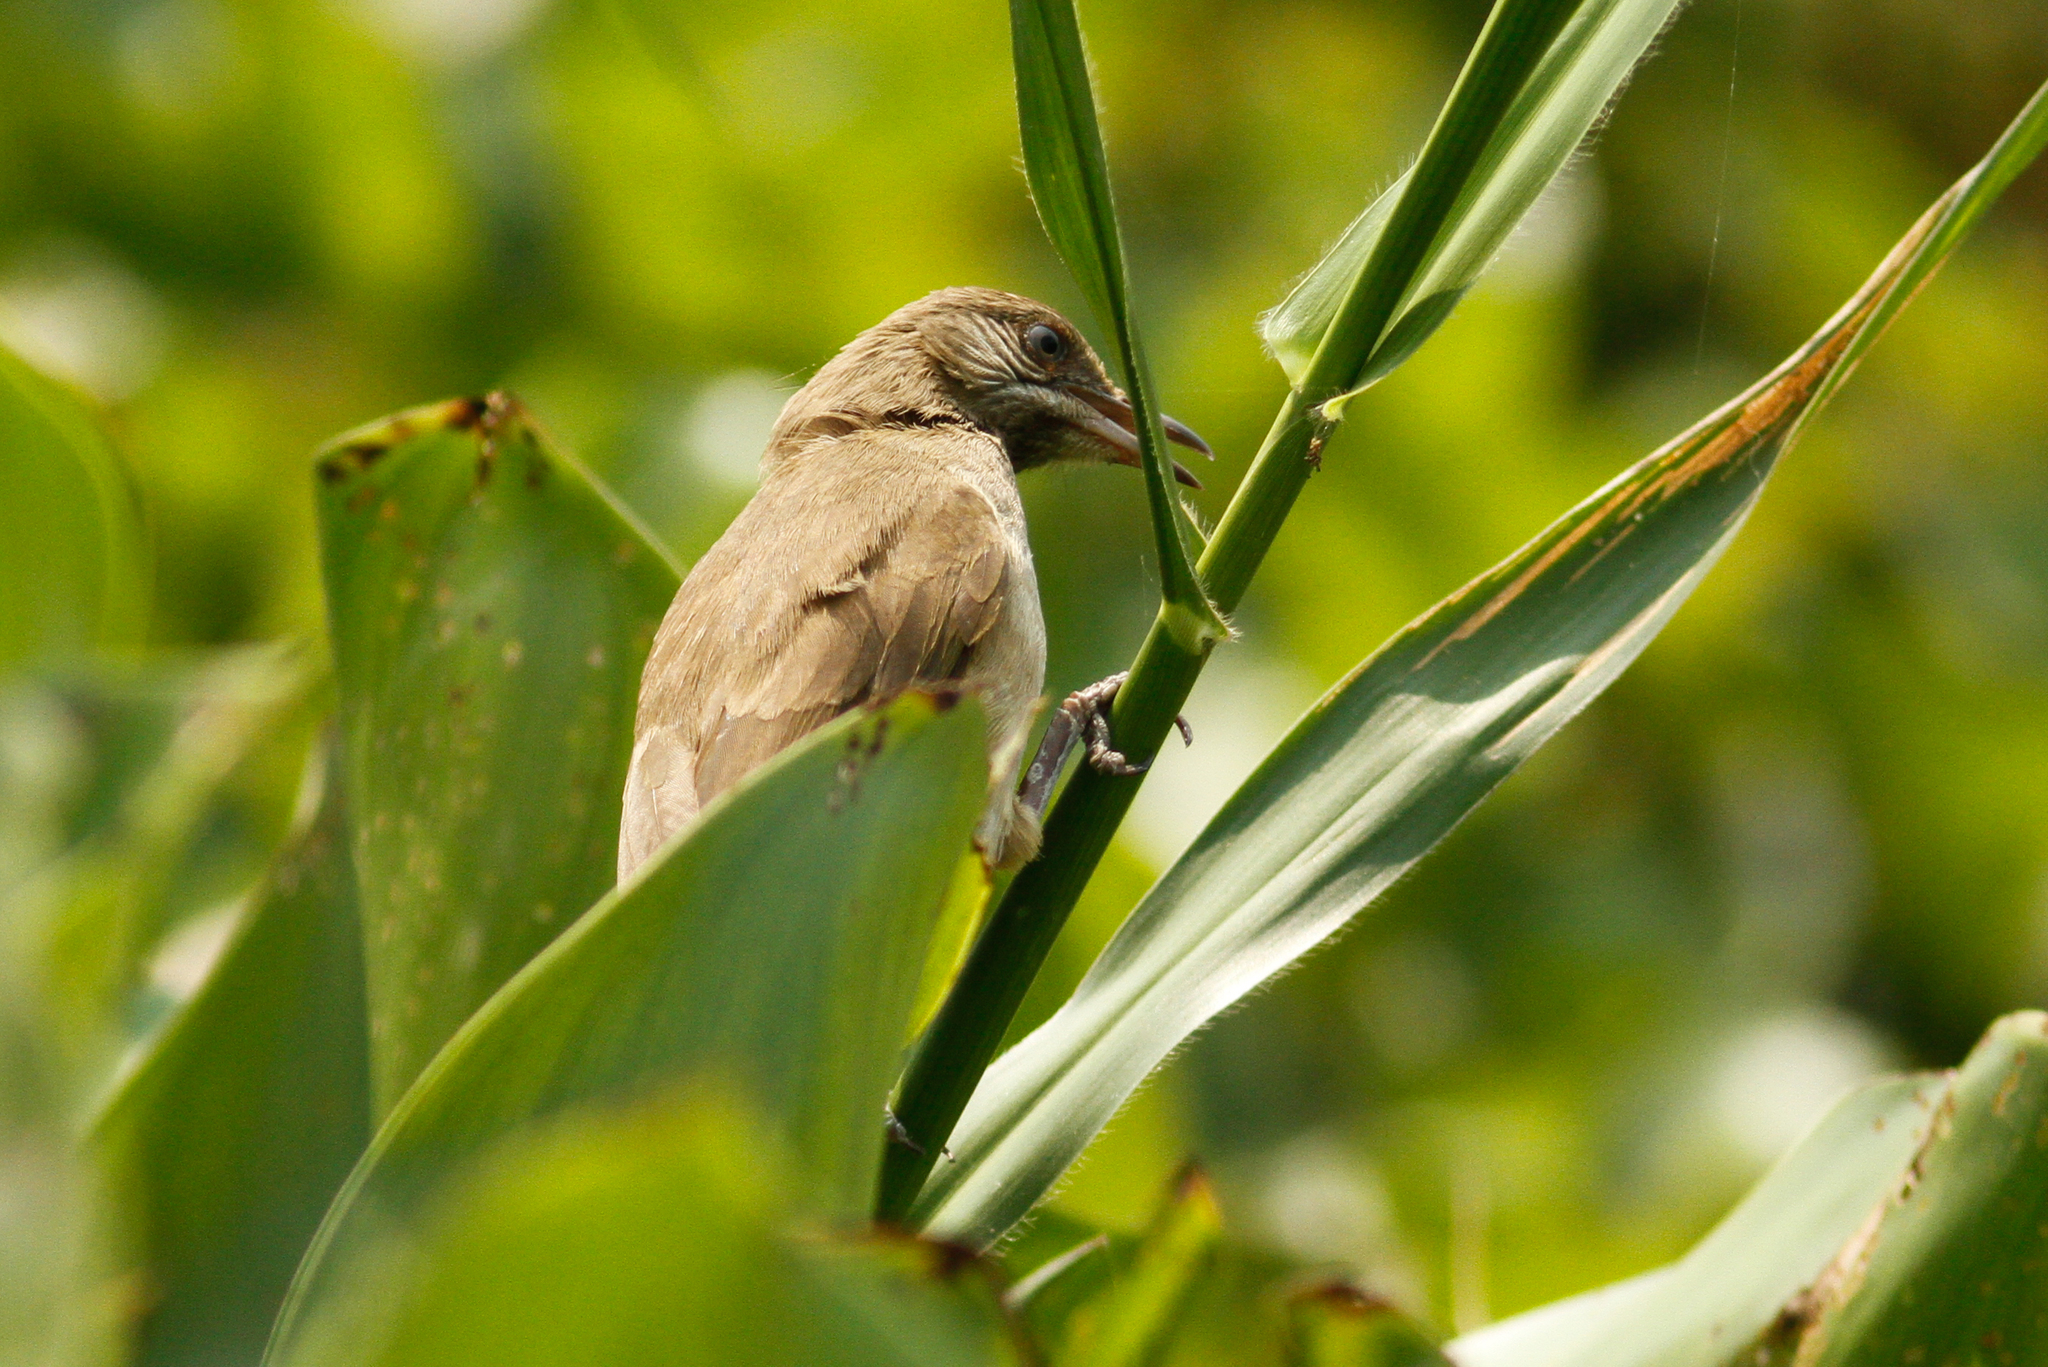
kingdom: Animalia
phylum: Chordata
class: Aves
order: Passeriformes
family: Pycnonotidae
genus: Pycnonotus
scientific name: Pycnonotus blanfordi
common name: Streak-eared bulbul
